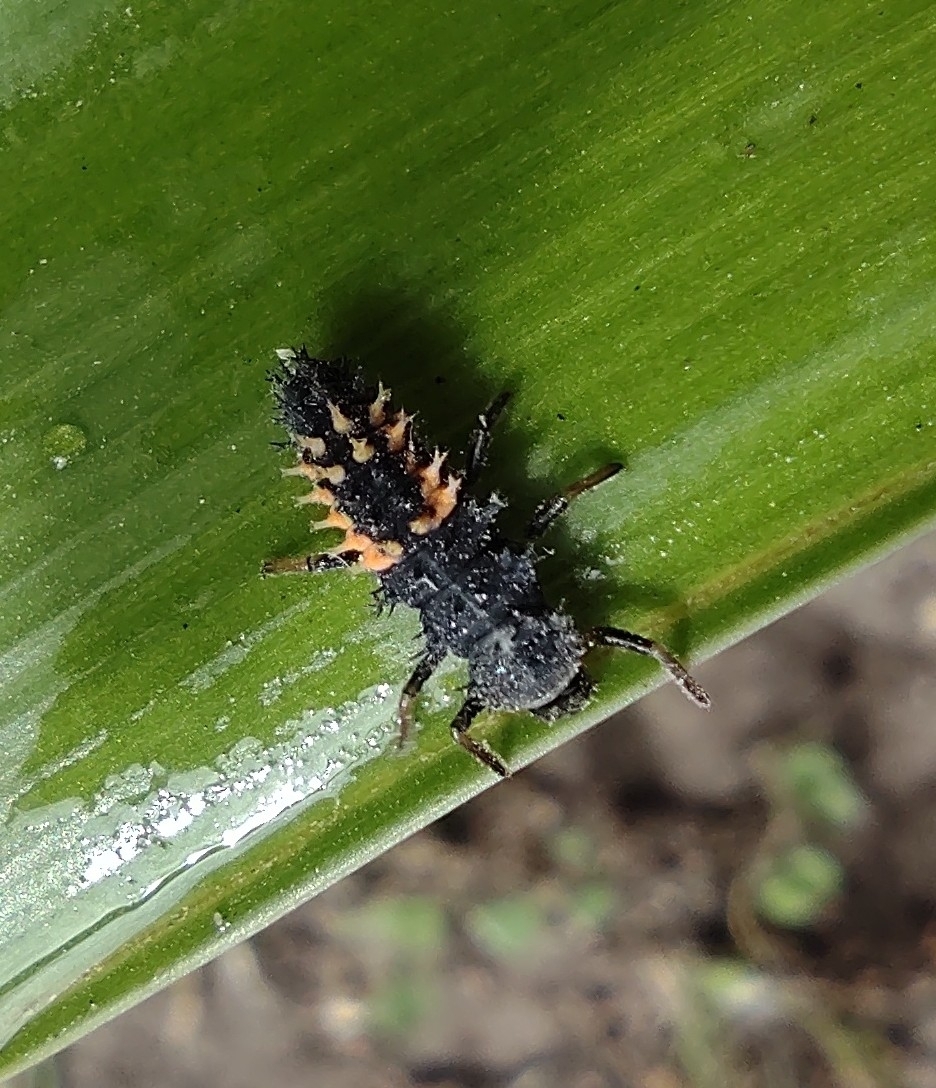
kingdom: Animalia
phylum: Arthropoda
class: Insecta
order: Coleoptera
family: Coccinellidae
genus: Harmonia
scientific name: Harmonia axyridis
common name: Harlequin ladybird
